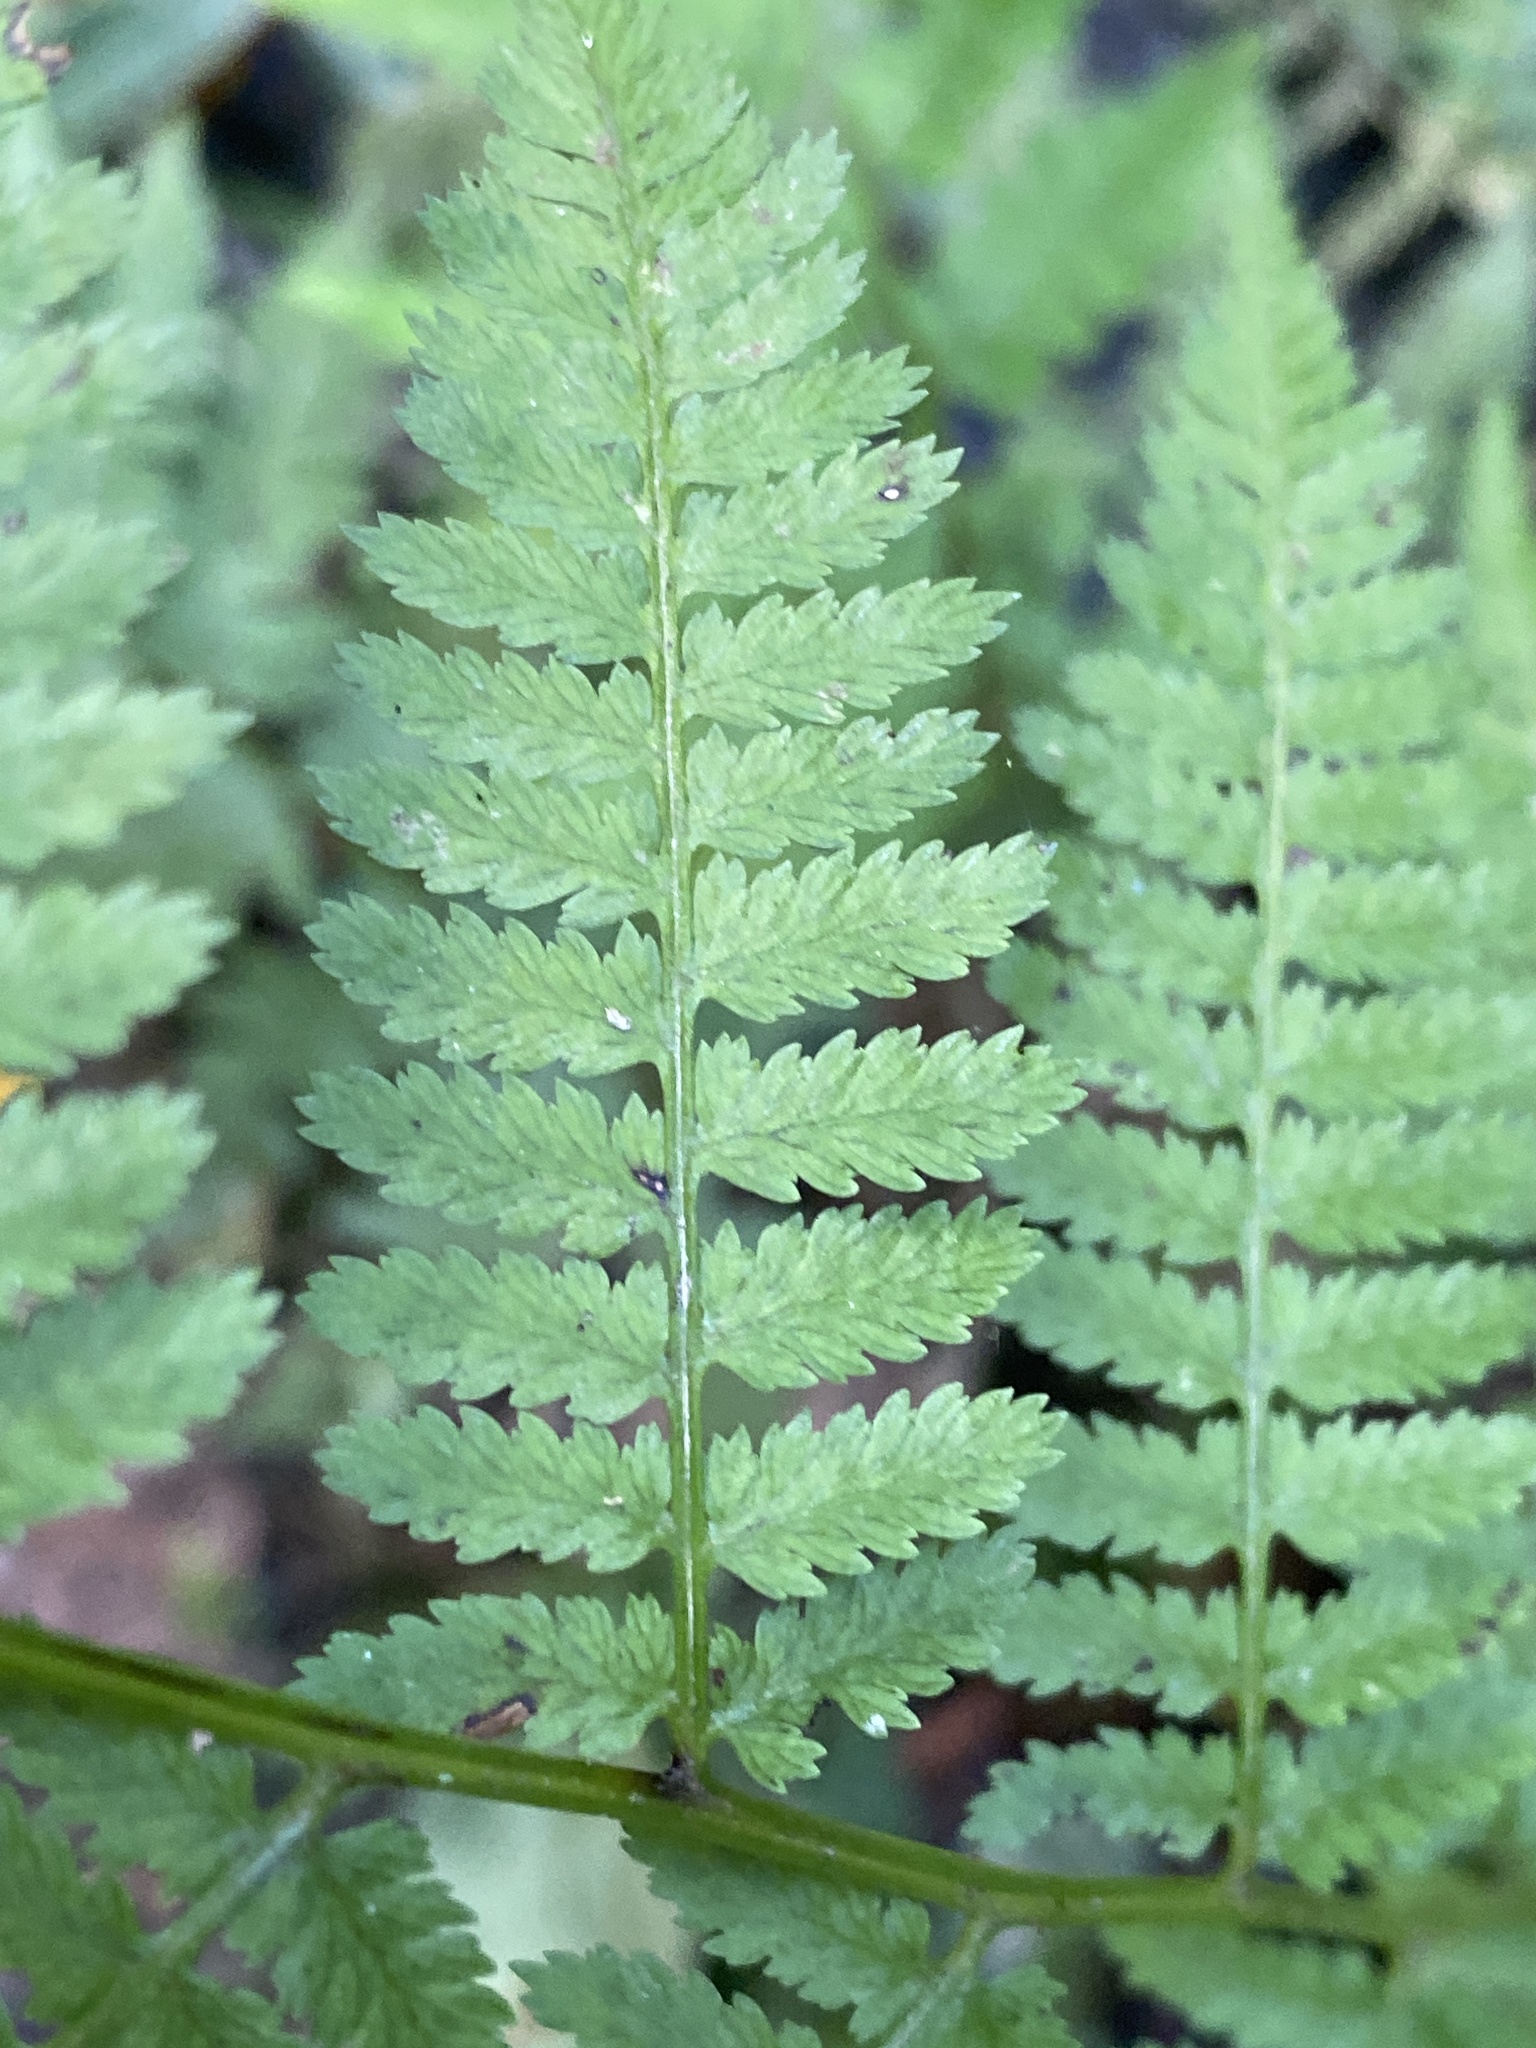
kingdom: Plantae
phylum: Tracheophyta
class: Polypodiopsida
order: Polypodiales
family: Athyriaceae
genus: Athyrium
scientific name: Athyrium asplenioides
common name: Southern lady fern
